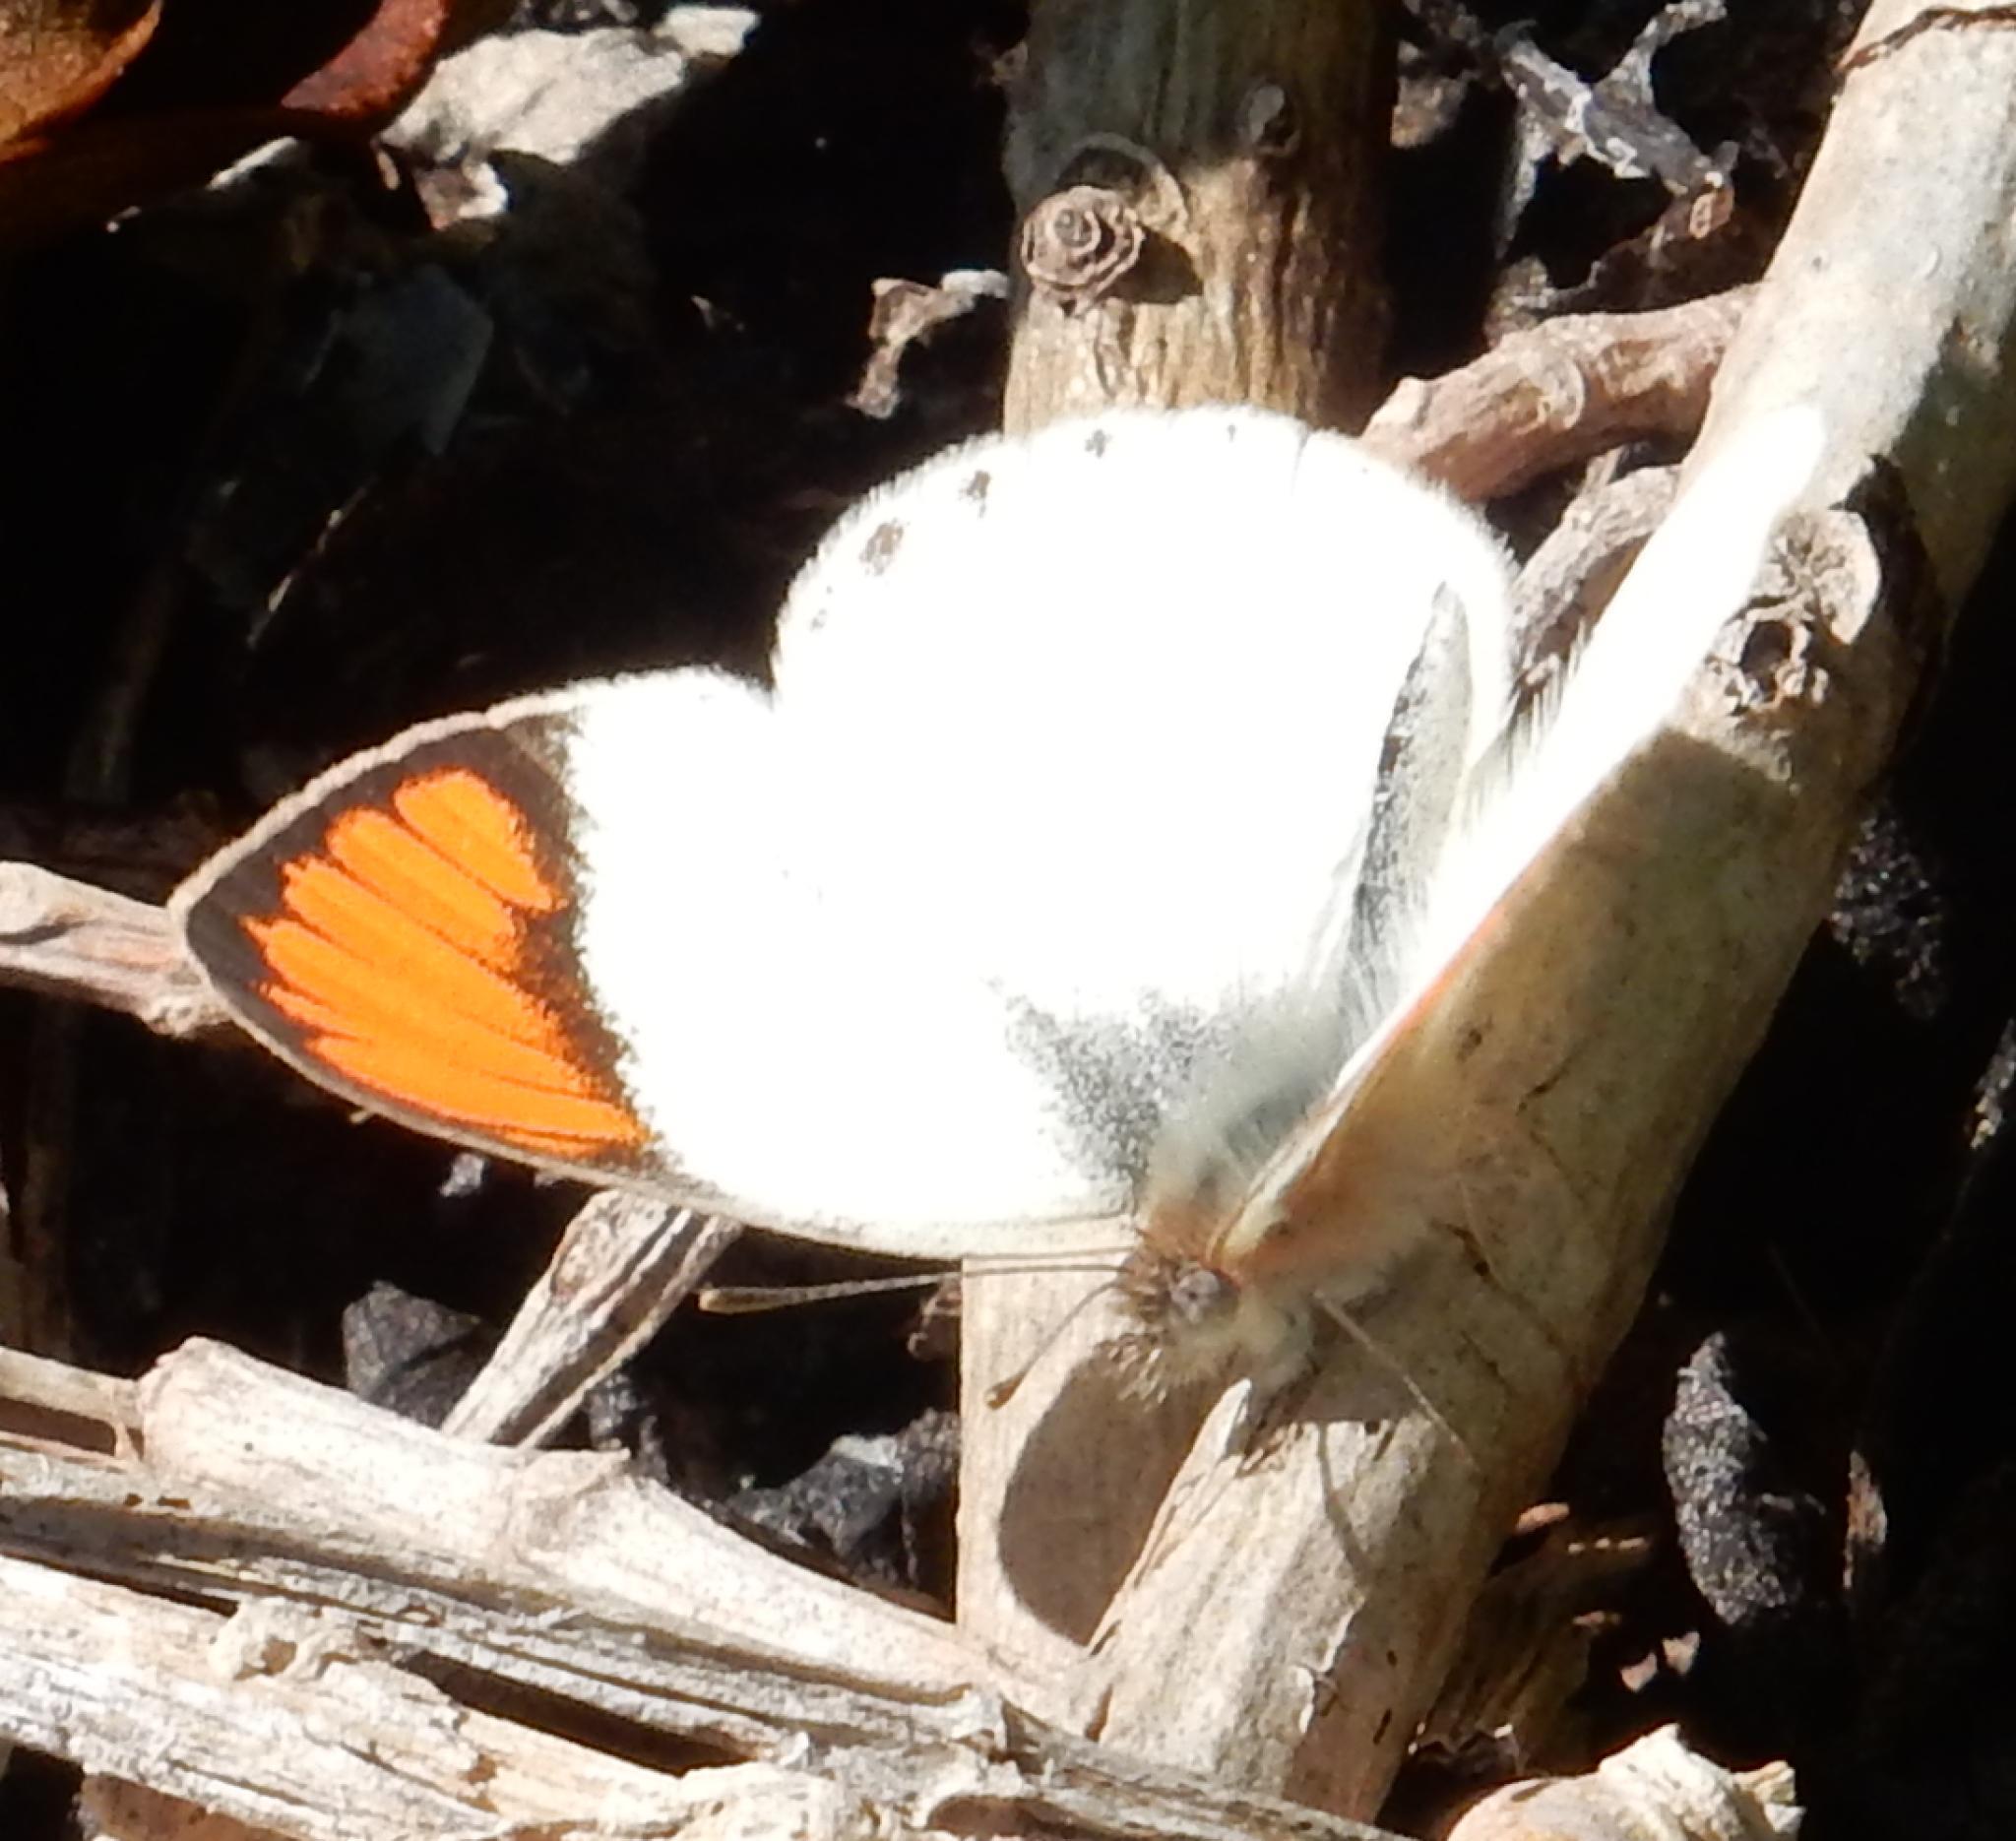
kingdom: Animalia
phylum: Arthropoda
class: Insecta
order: Lepidoptera
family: Pieridae
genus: Colotis
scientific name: Colotis euippe
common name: Round-winged orange tip
